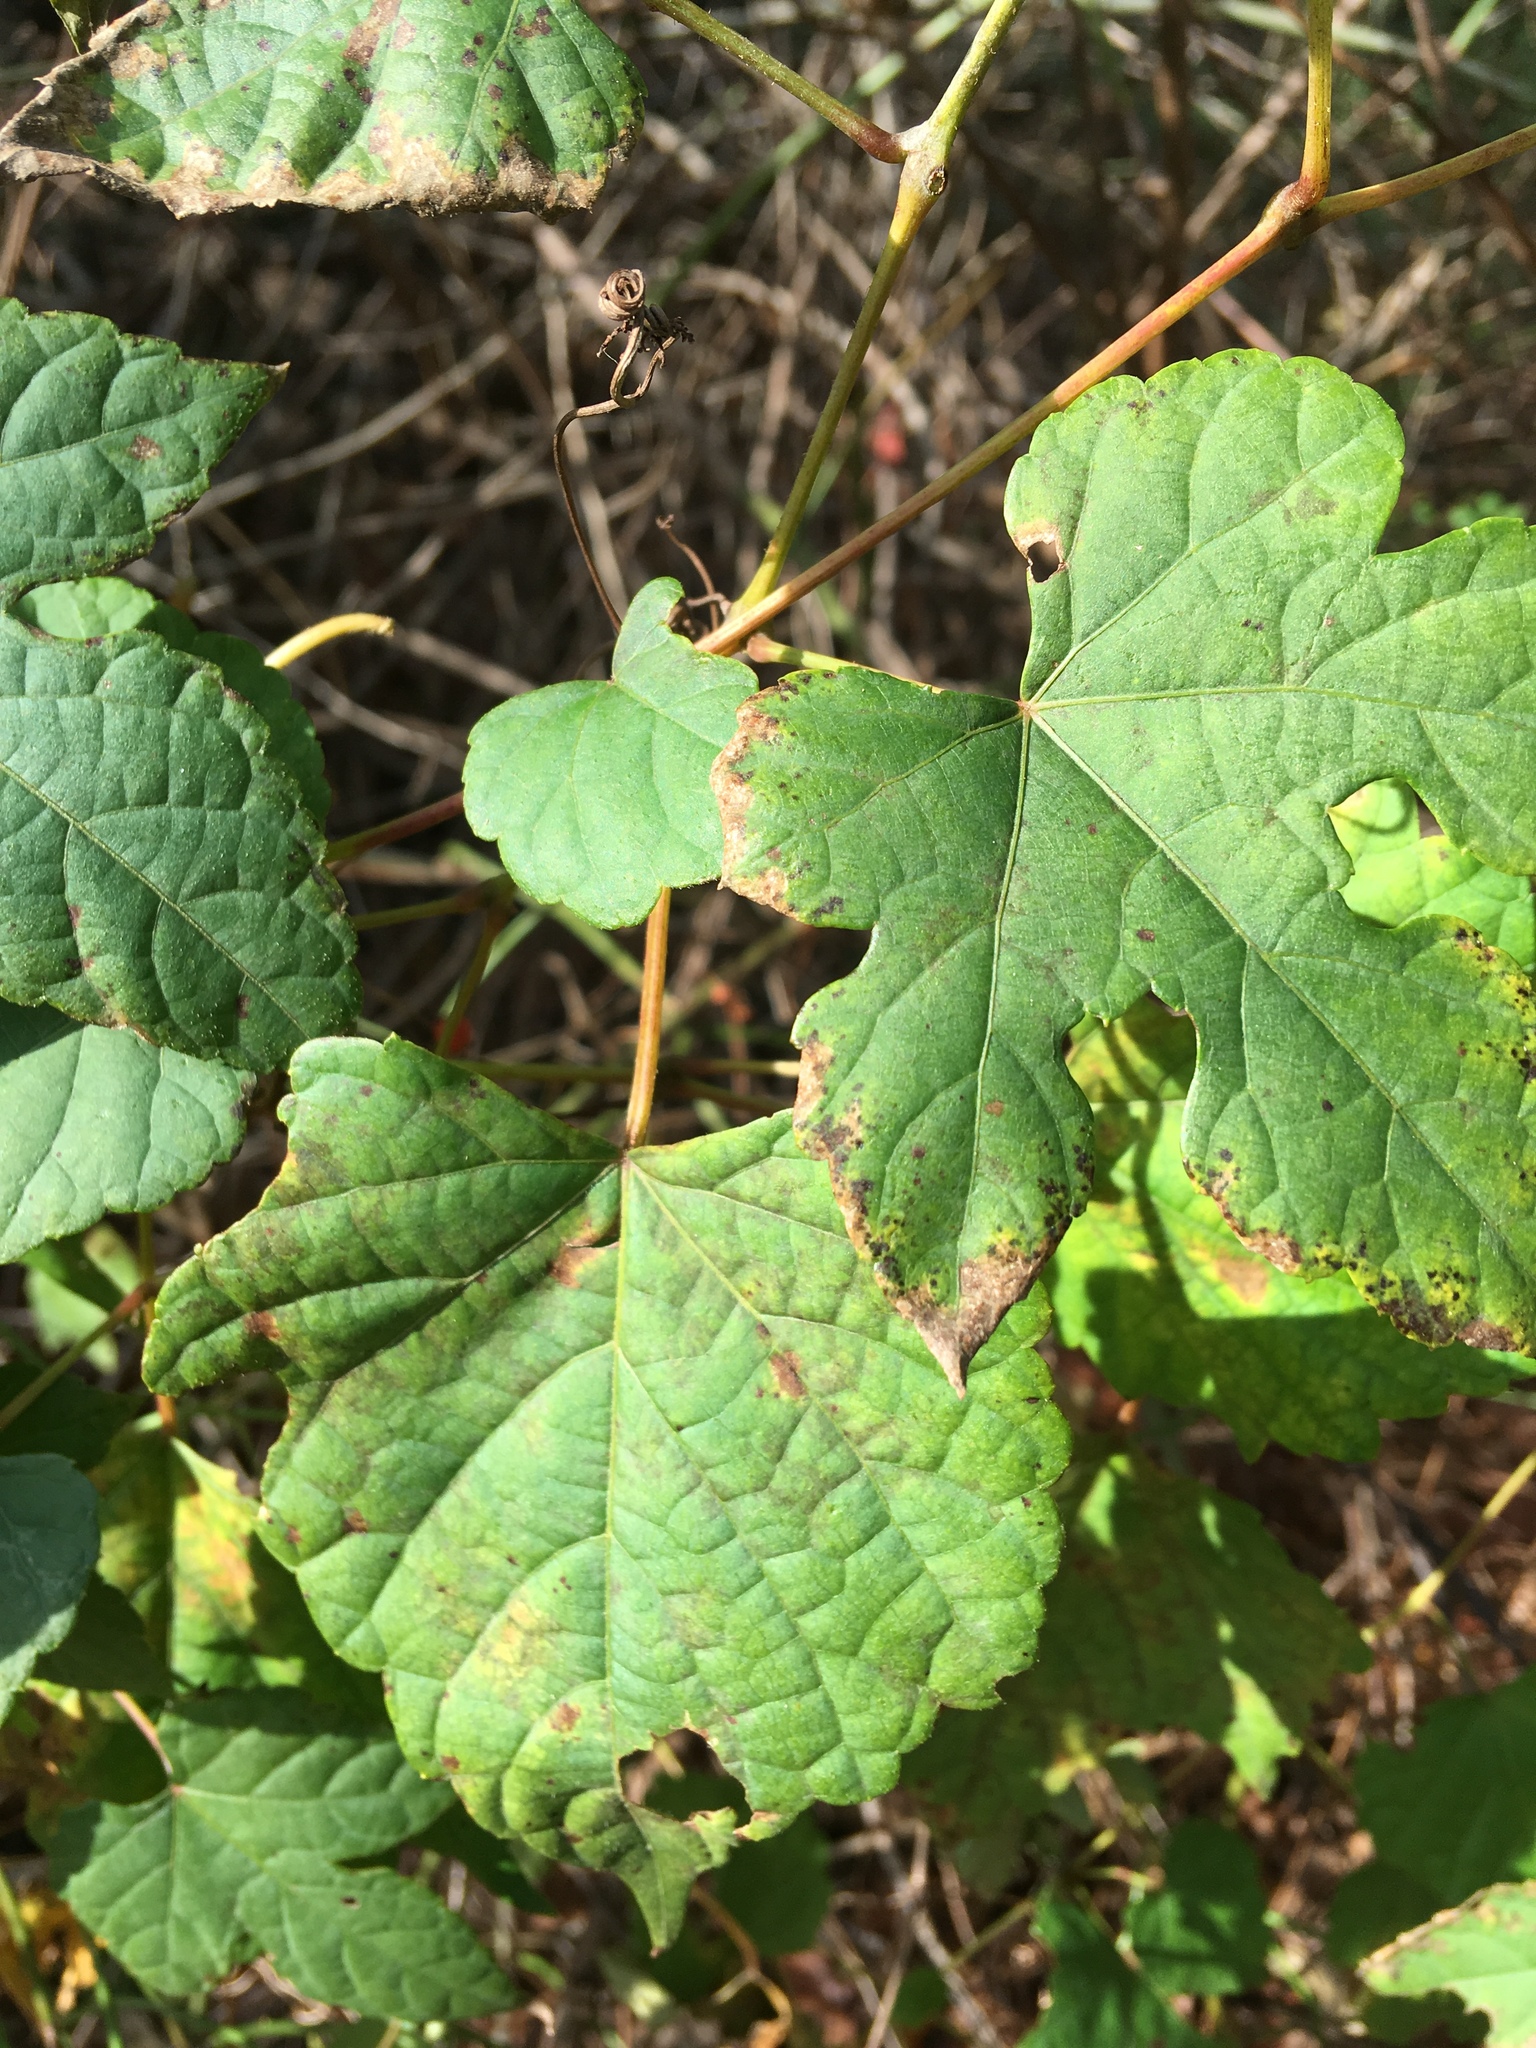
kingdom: Plantae
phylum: Tracheophyta
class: Magnoliopsida
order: Vitales
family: Vitaceae
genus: Ampelopsis
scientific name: Ampelopsis glandulosa
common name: Amur peppervine
